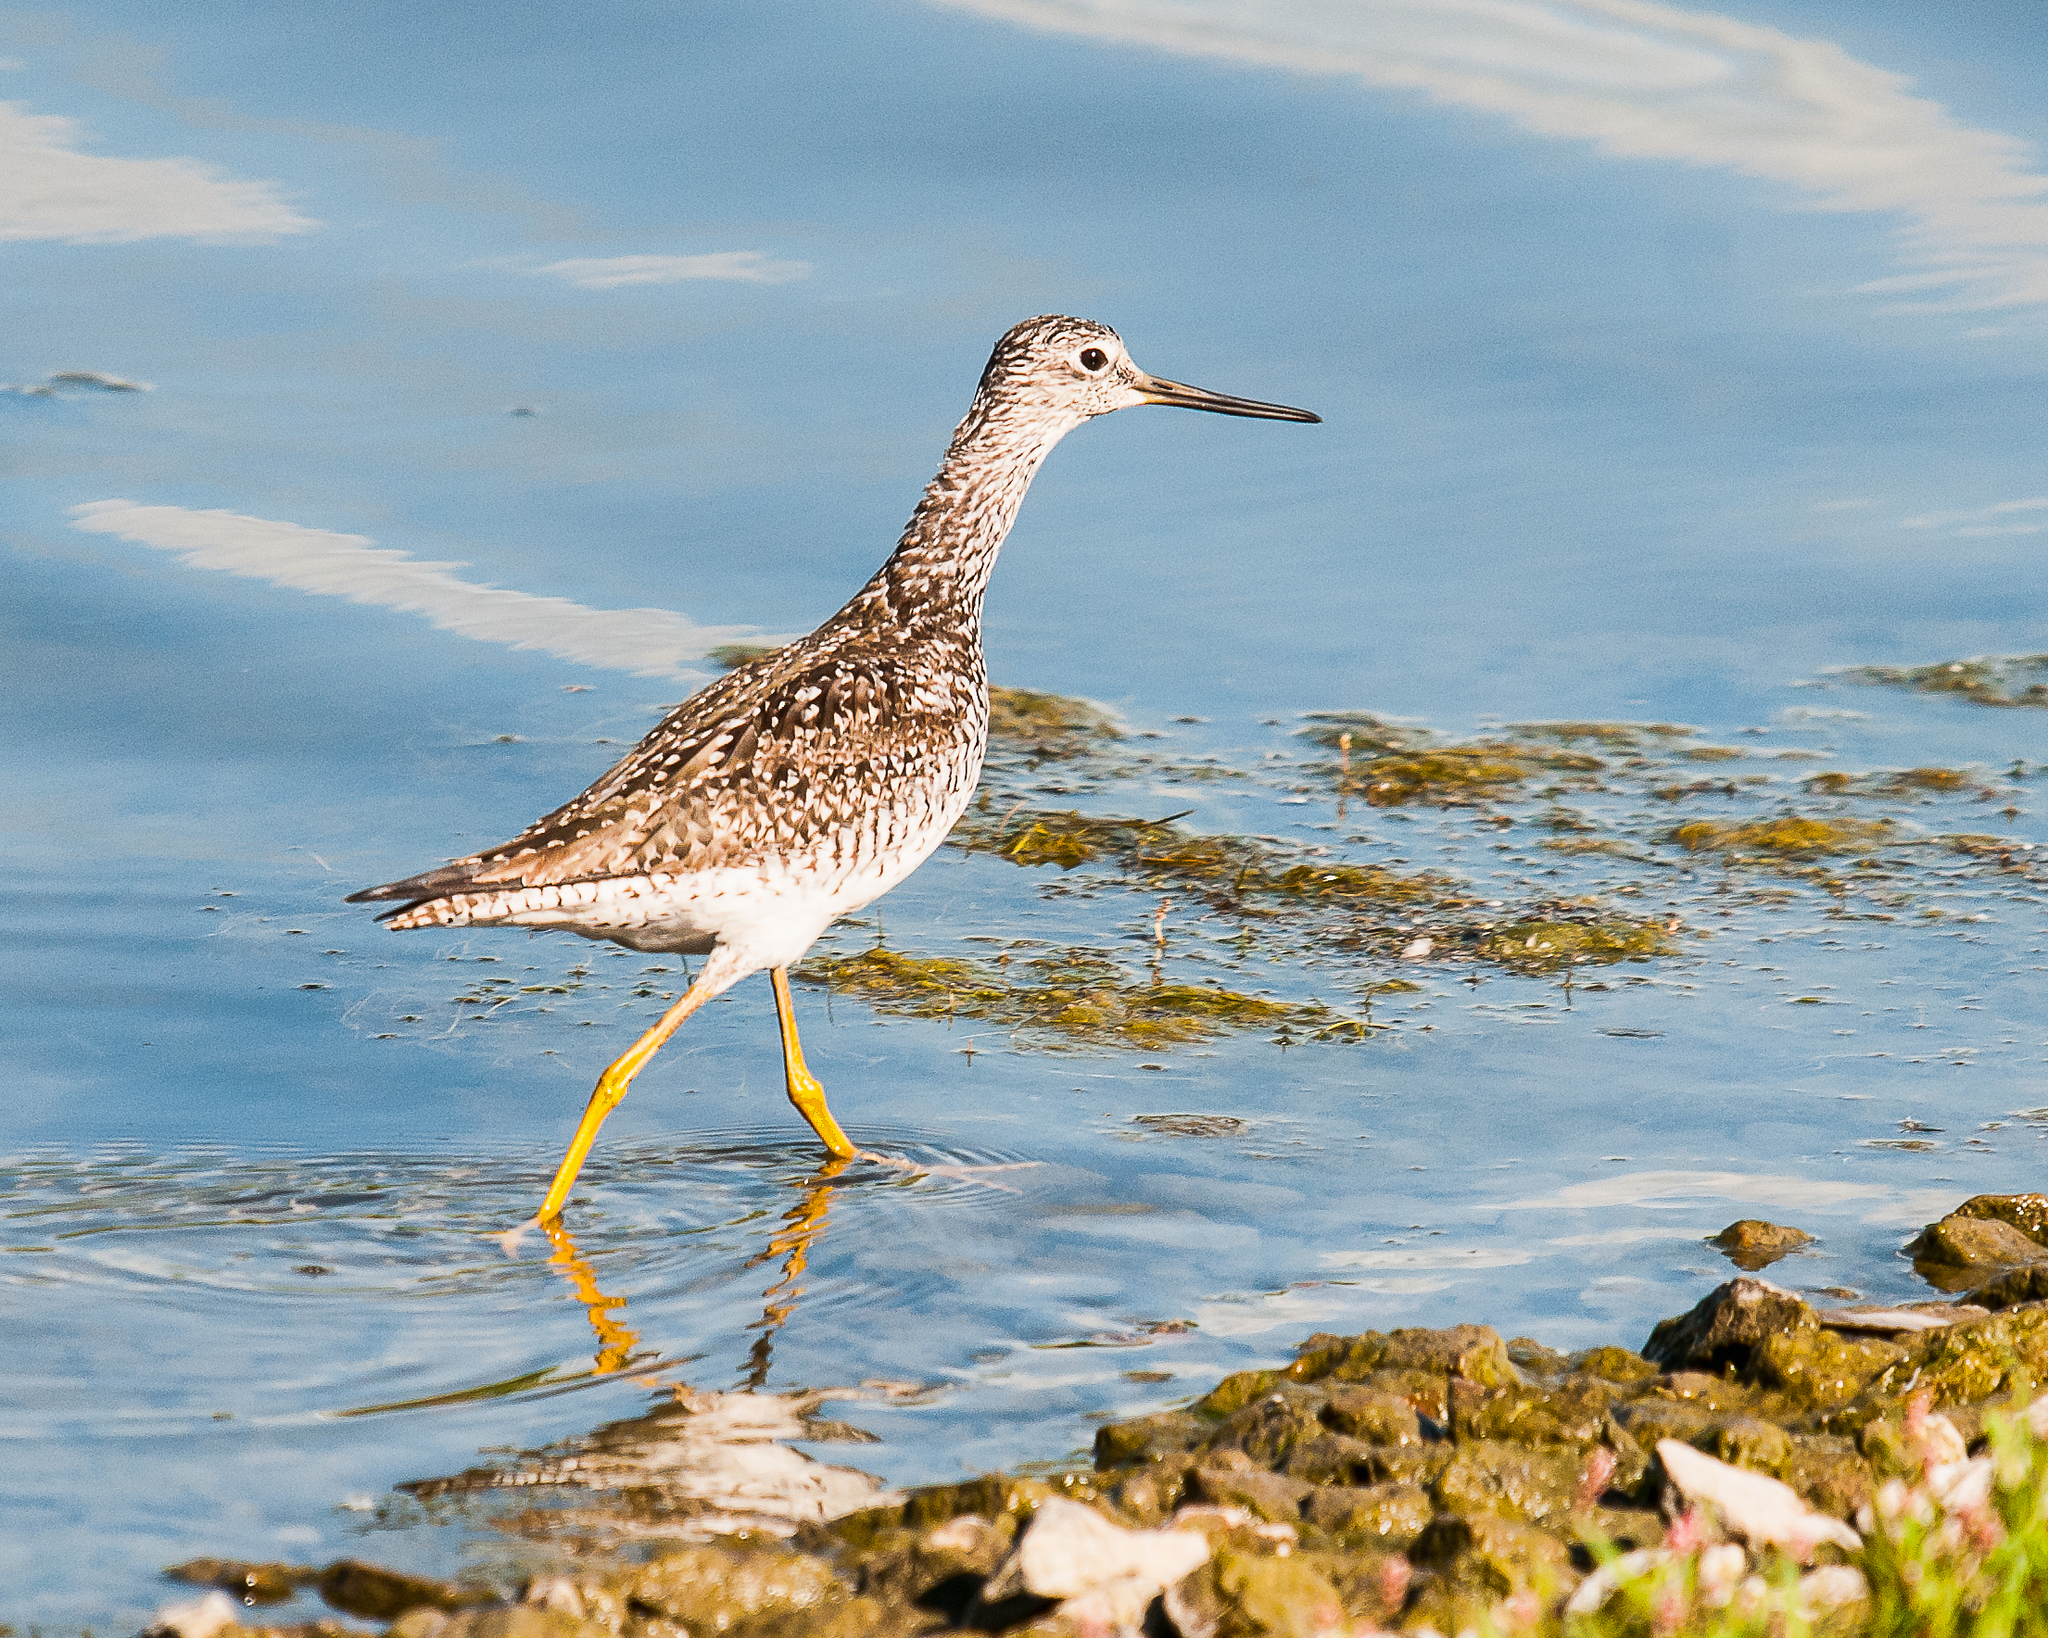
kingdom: Animalia
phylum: Chordata
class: Aves
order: Charadriiformes
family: Scolopacidae
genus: Tringa
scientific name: Tringa melanoleuca
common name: Greater yellowlegs
